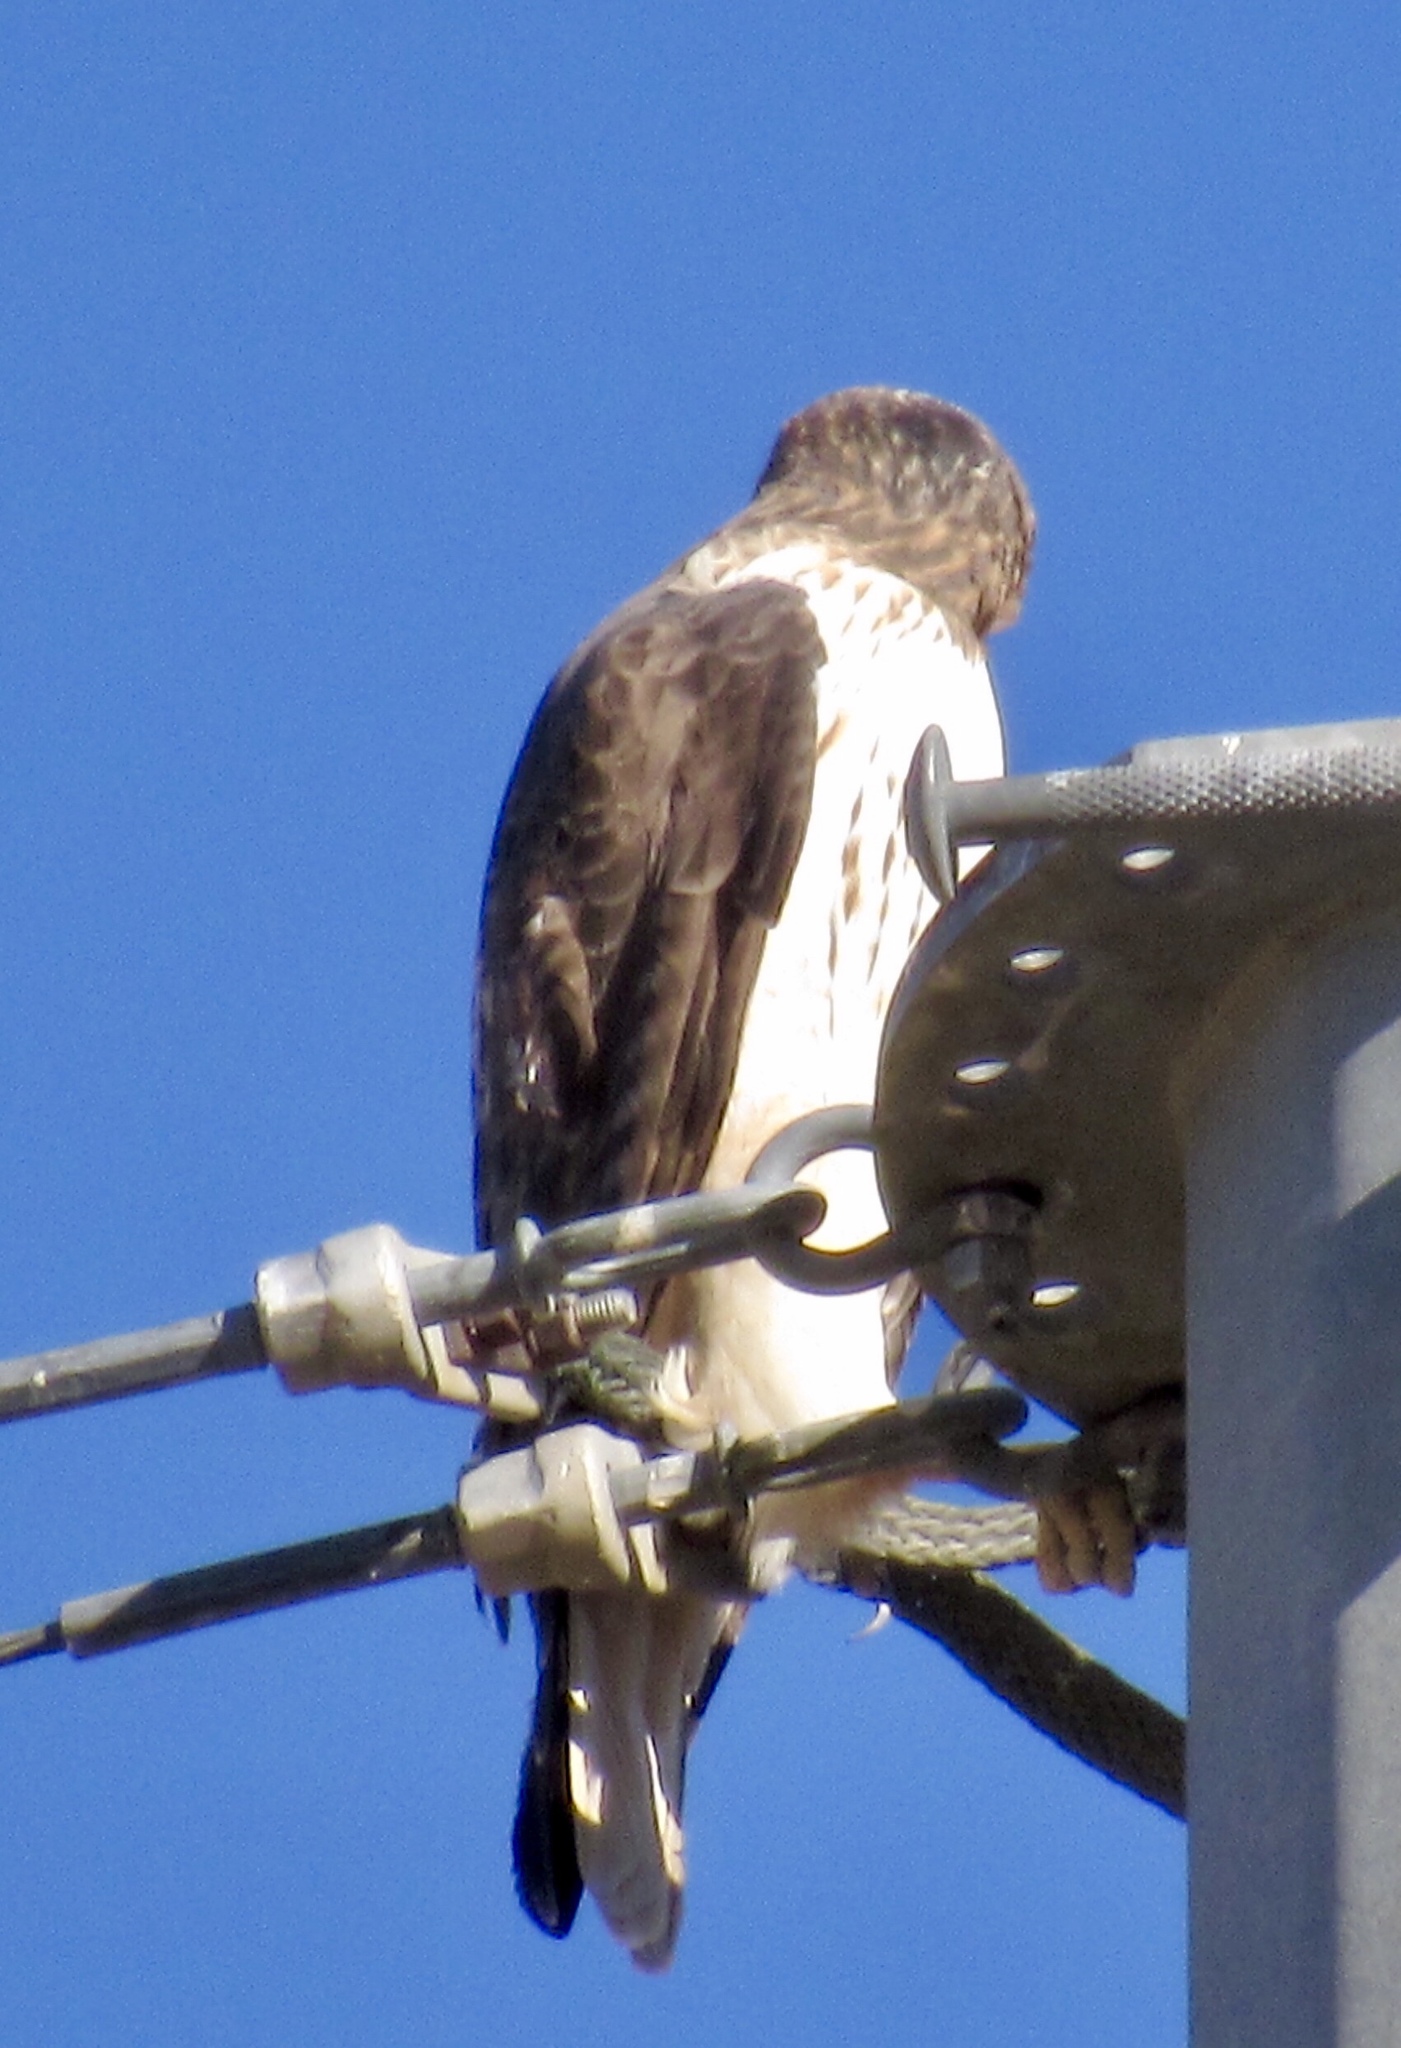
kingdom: Animalia
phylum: Chordata
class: Aves
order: Accipitriformes
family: Accipitridae
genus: Buteo
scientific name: Buteo jamaicensis
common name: Red-tailed hawk
